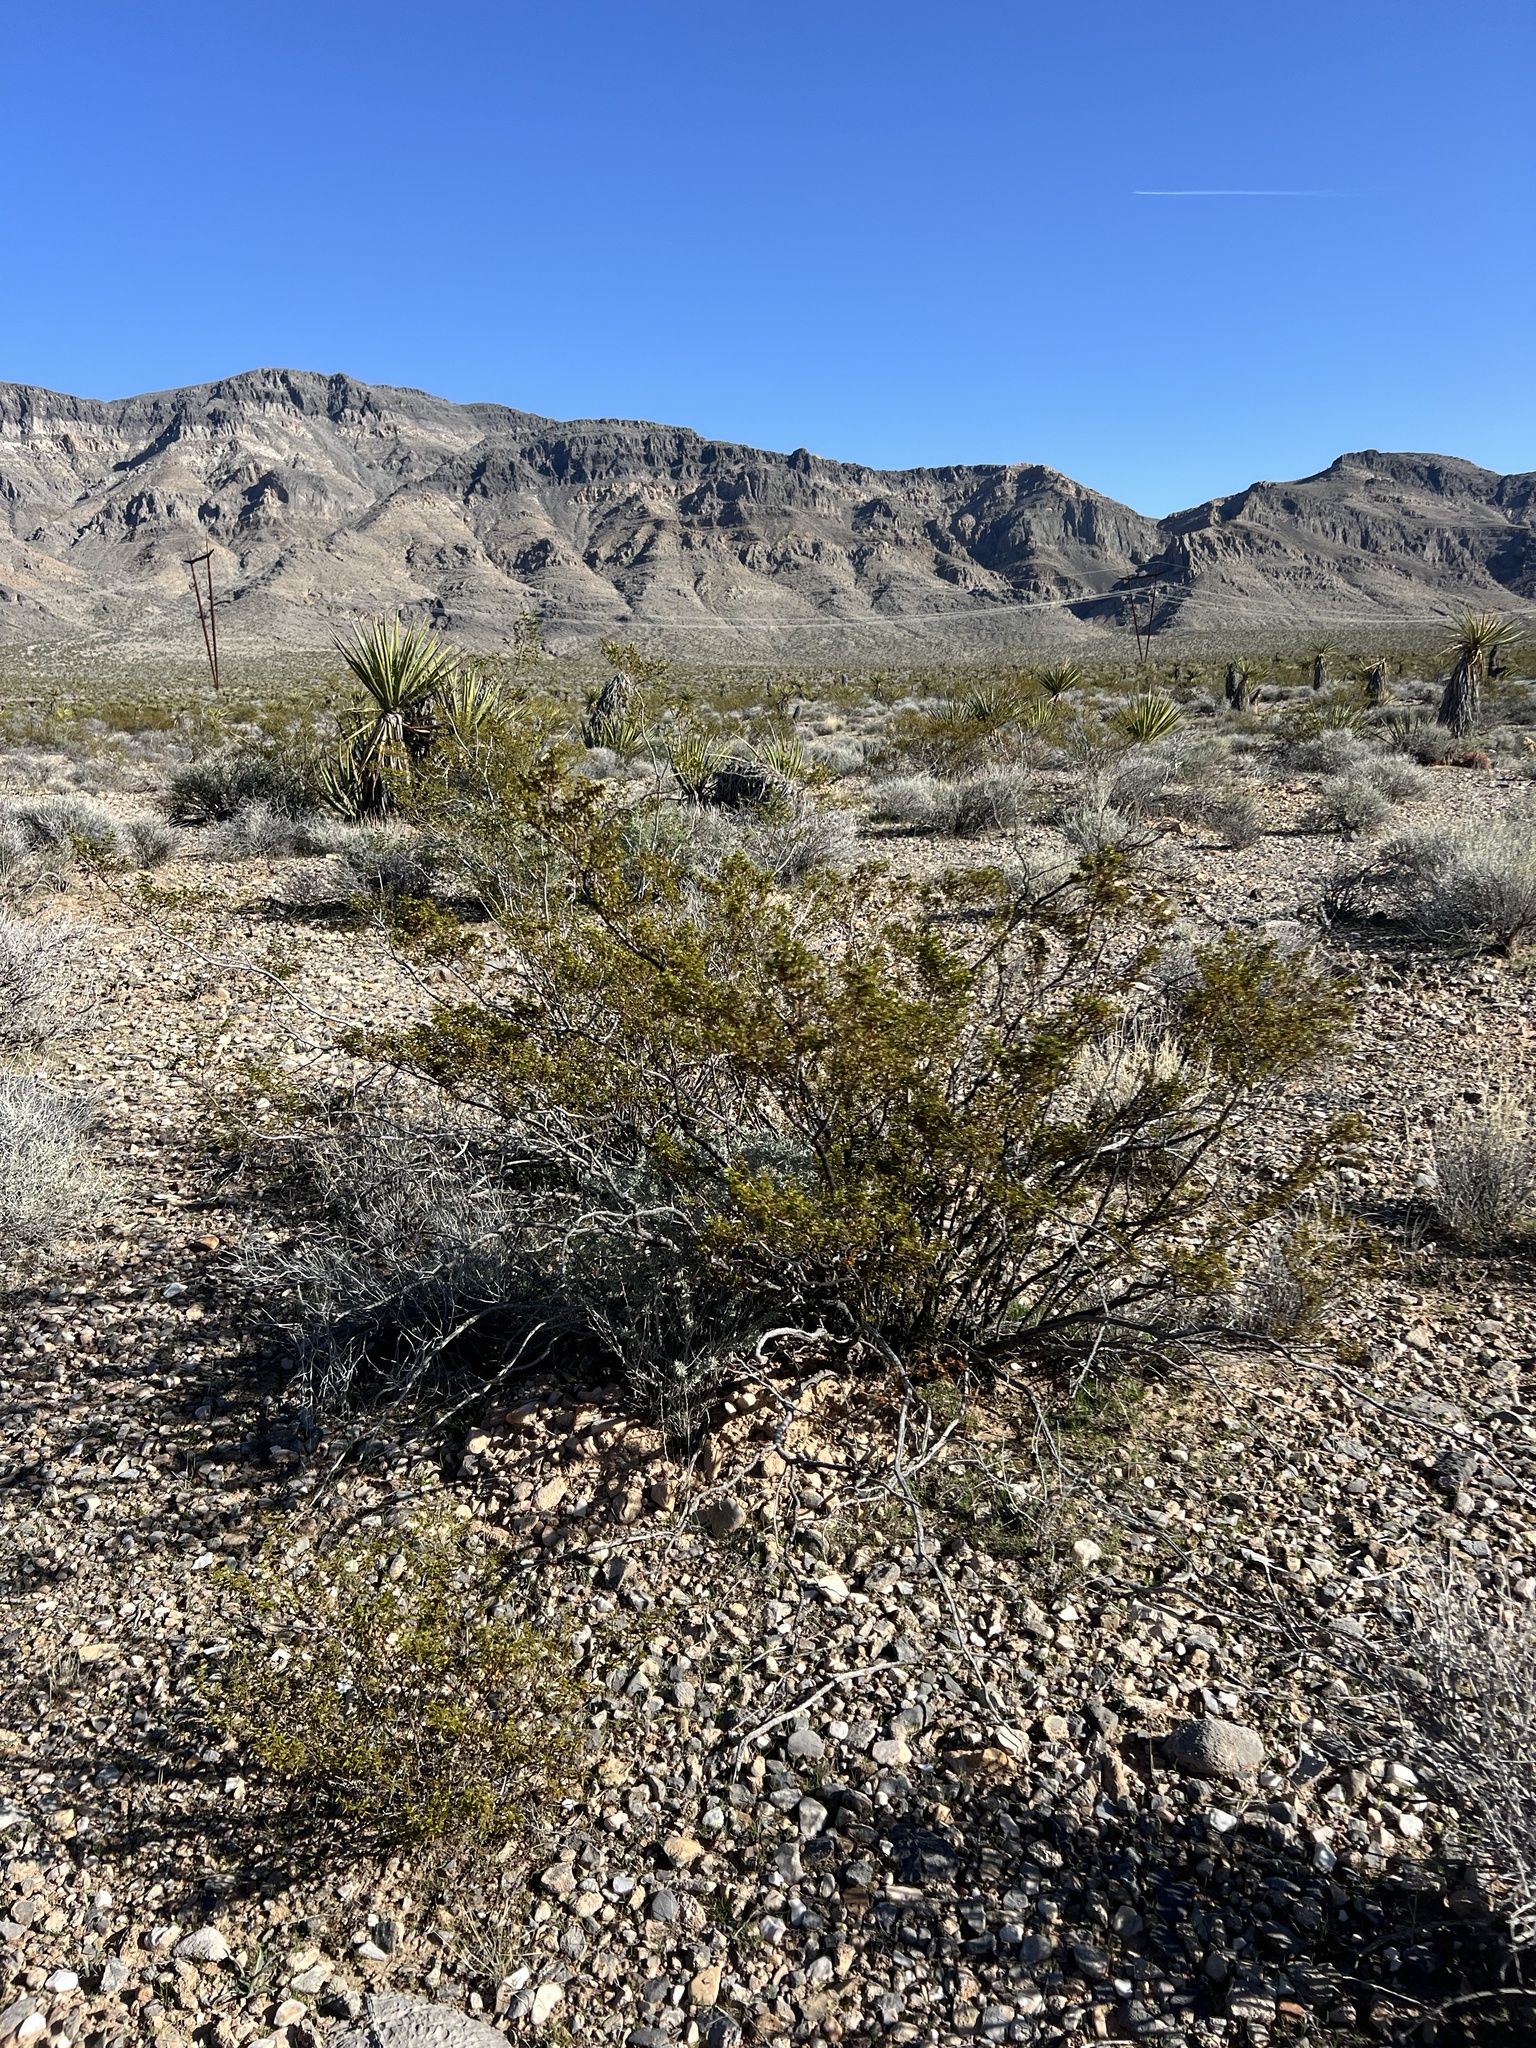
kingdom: Plantae
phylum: Tracheophyta
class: Magnoliopsida
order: Zygophyllales
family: Zygophyllaceae
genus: Larrea
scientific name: Larrea tridentata
